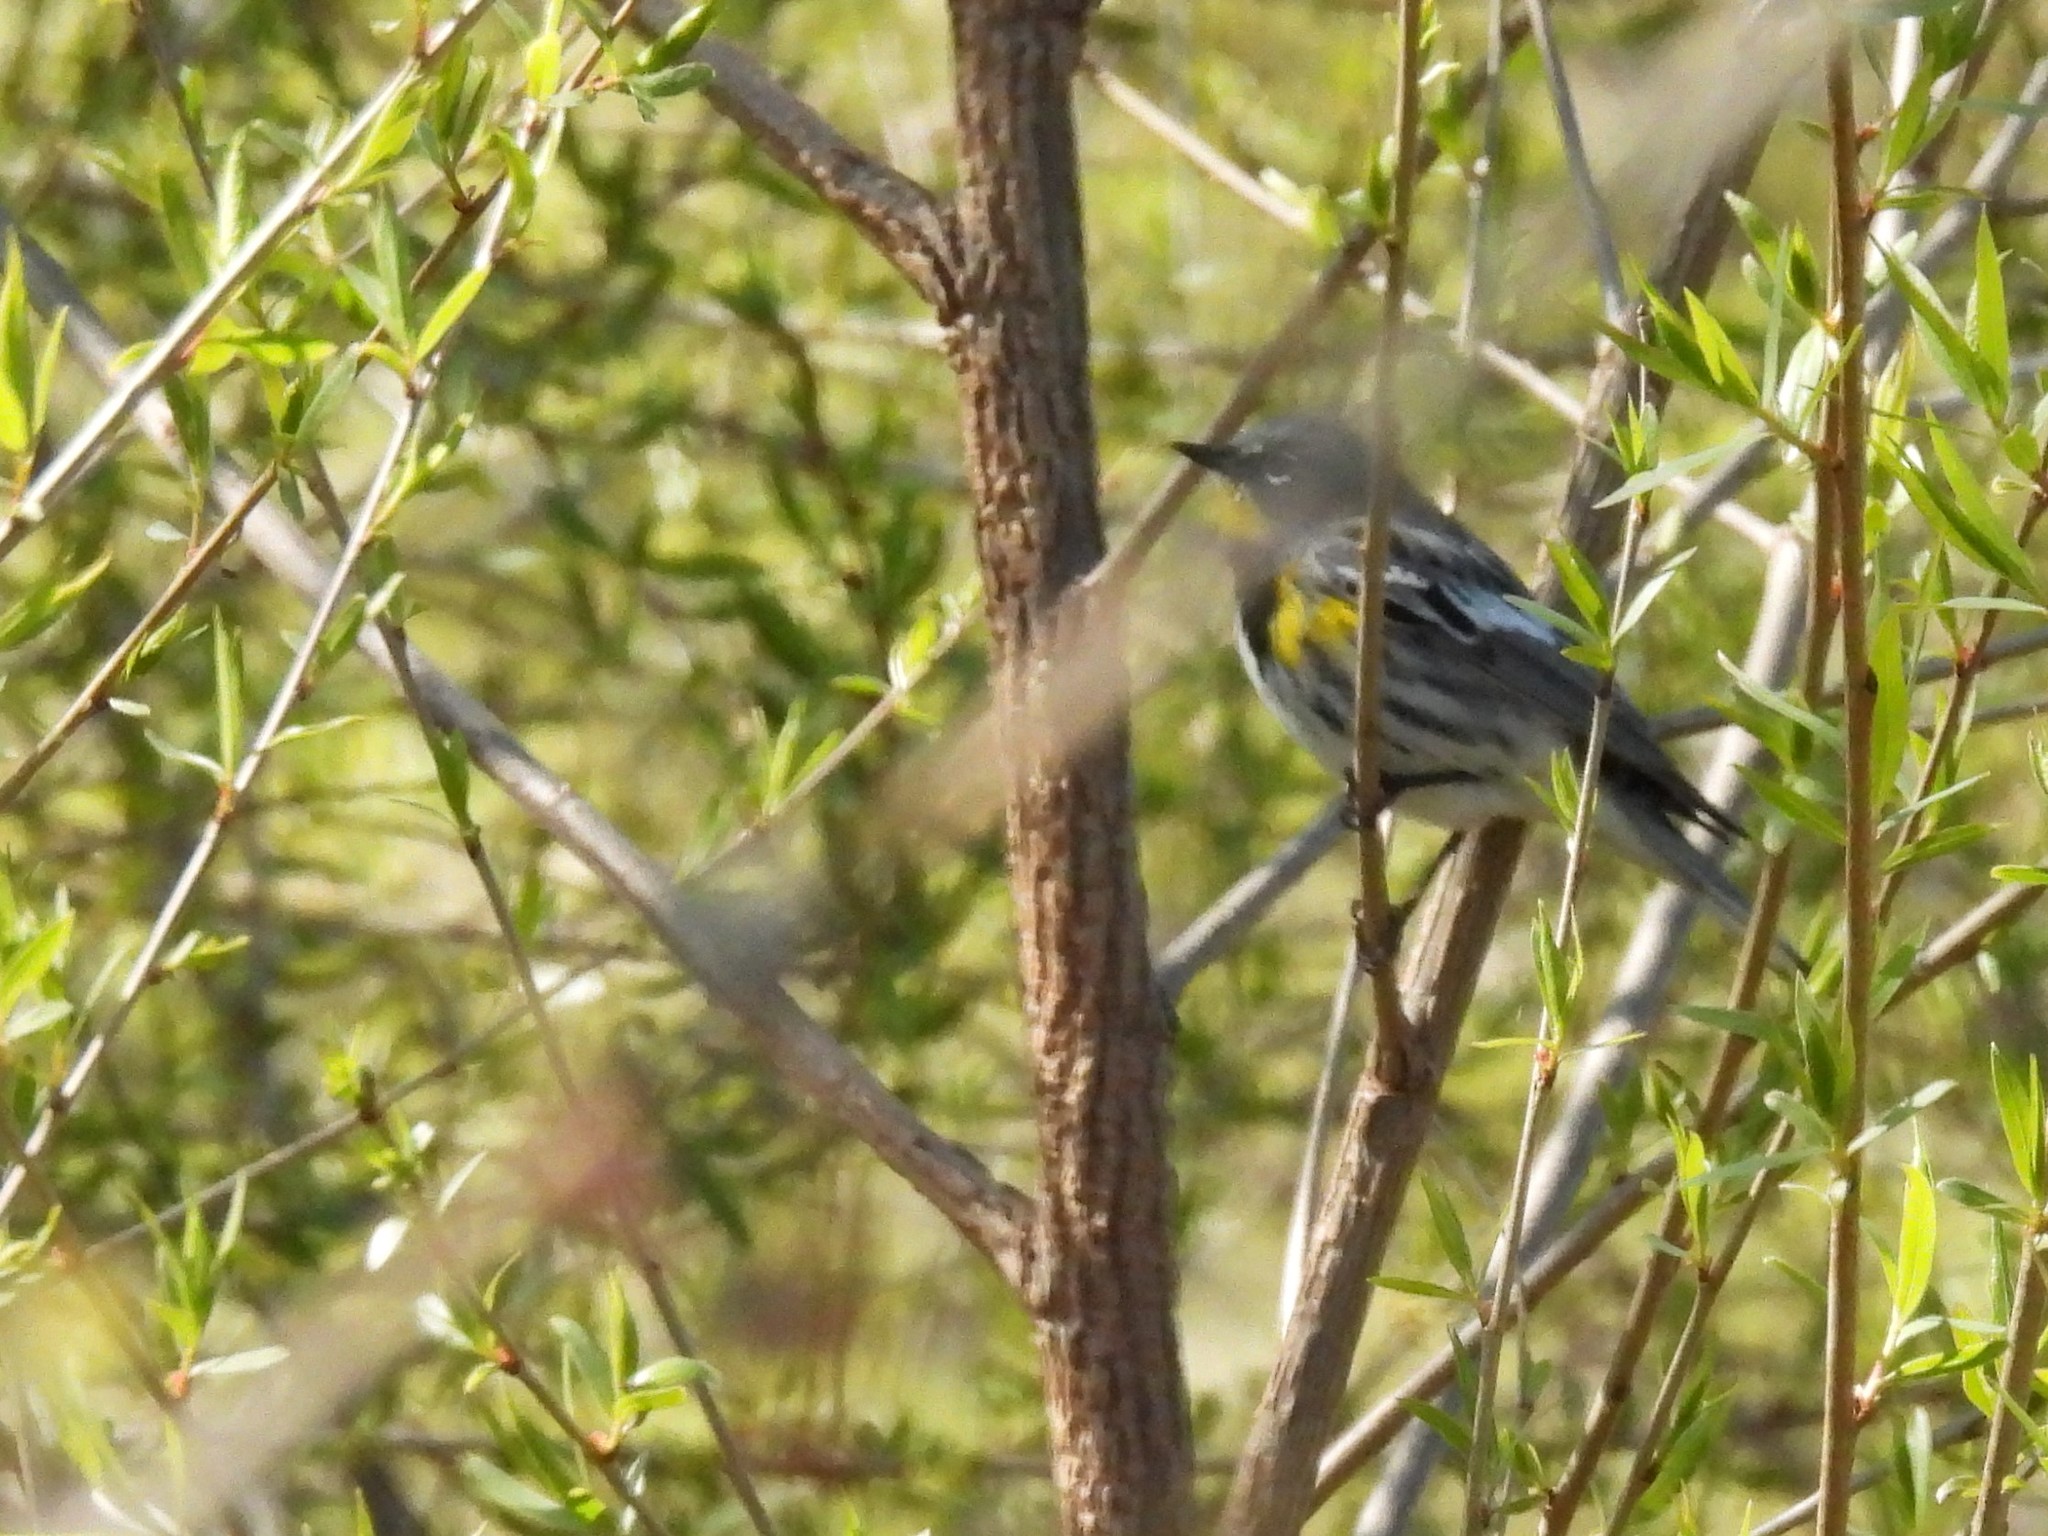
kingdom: Animalia
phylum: Chordata
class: Aves
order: Passeriformes
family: Parulidae
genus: Setophaga
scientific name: Setophaga coronata
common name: Myrtle warbler
